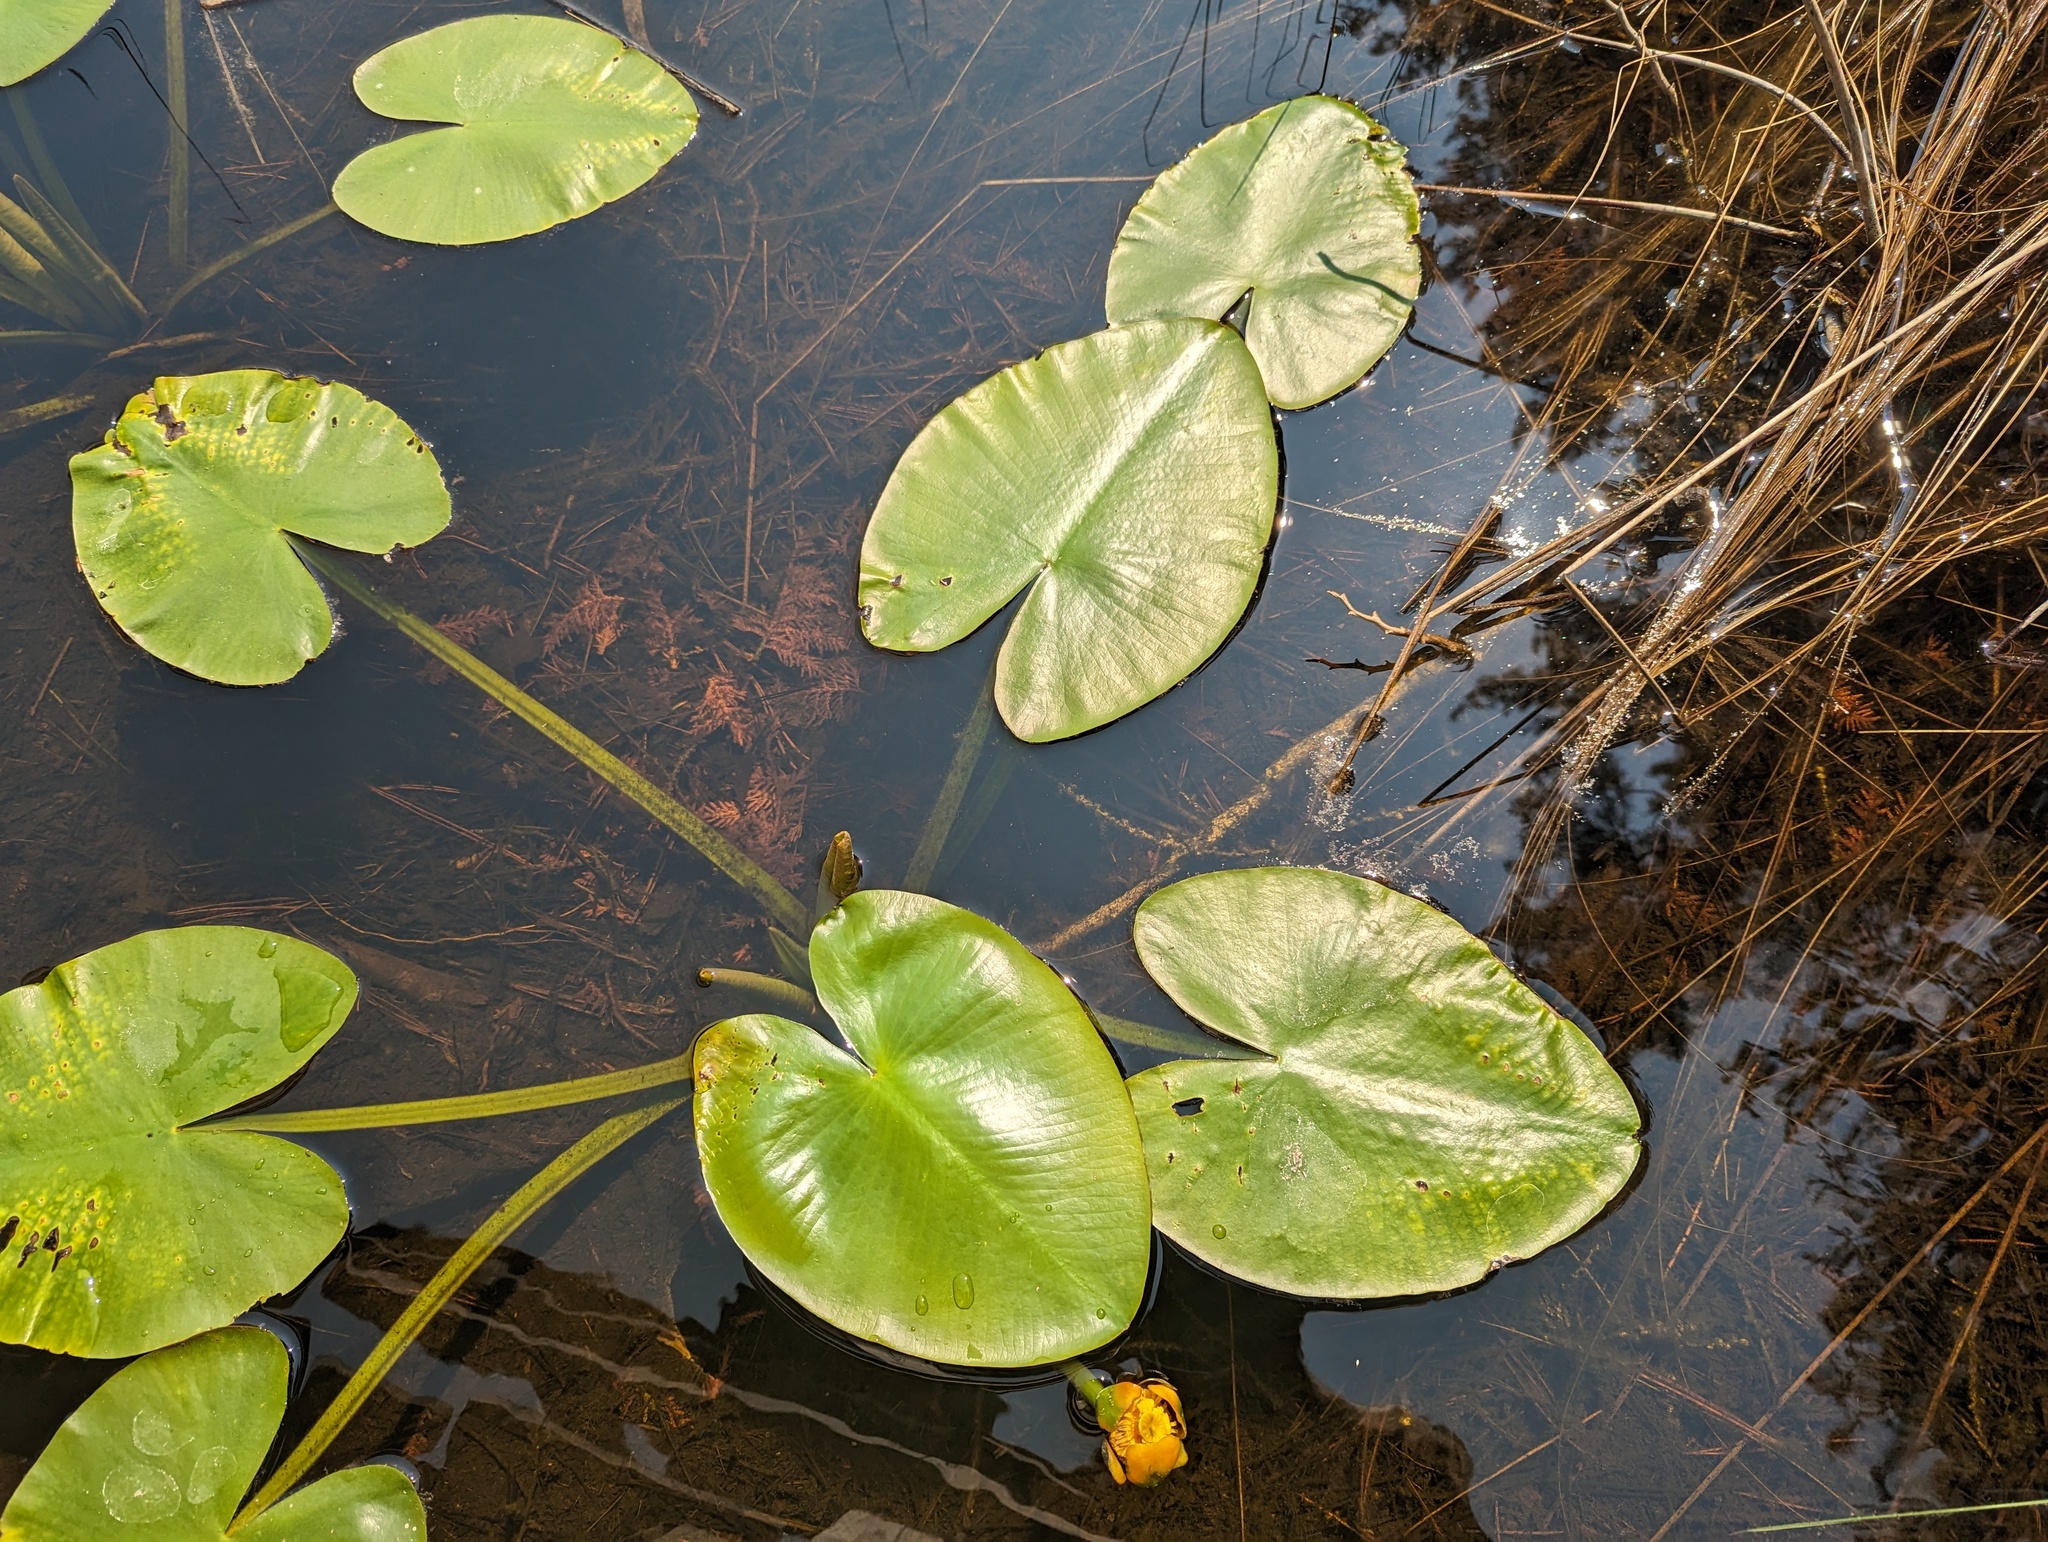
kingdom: Plantae
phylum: Tracheophyta
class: Magnoliopsida
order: Nymphaeales
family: Nymphaeaceae
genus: Nuphar
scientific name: Nuphar variegata
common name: Beaver-root
